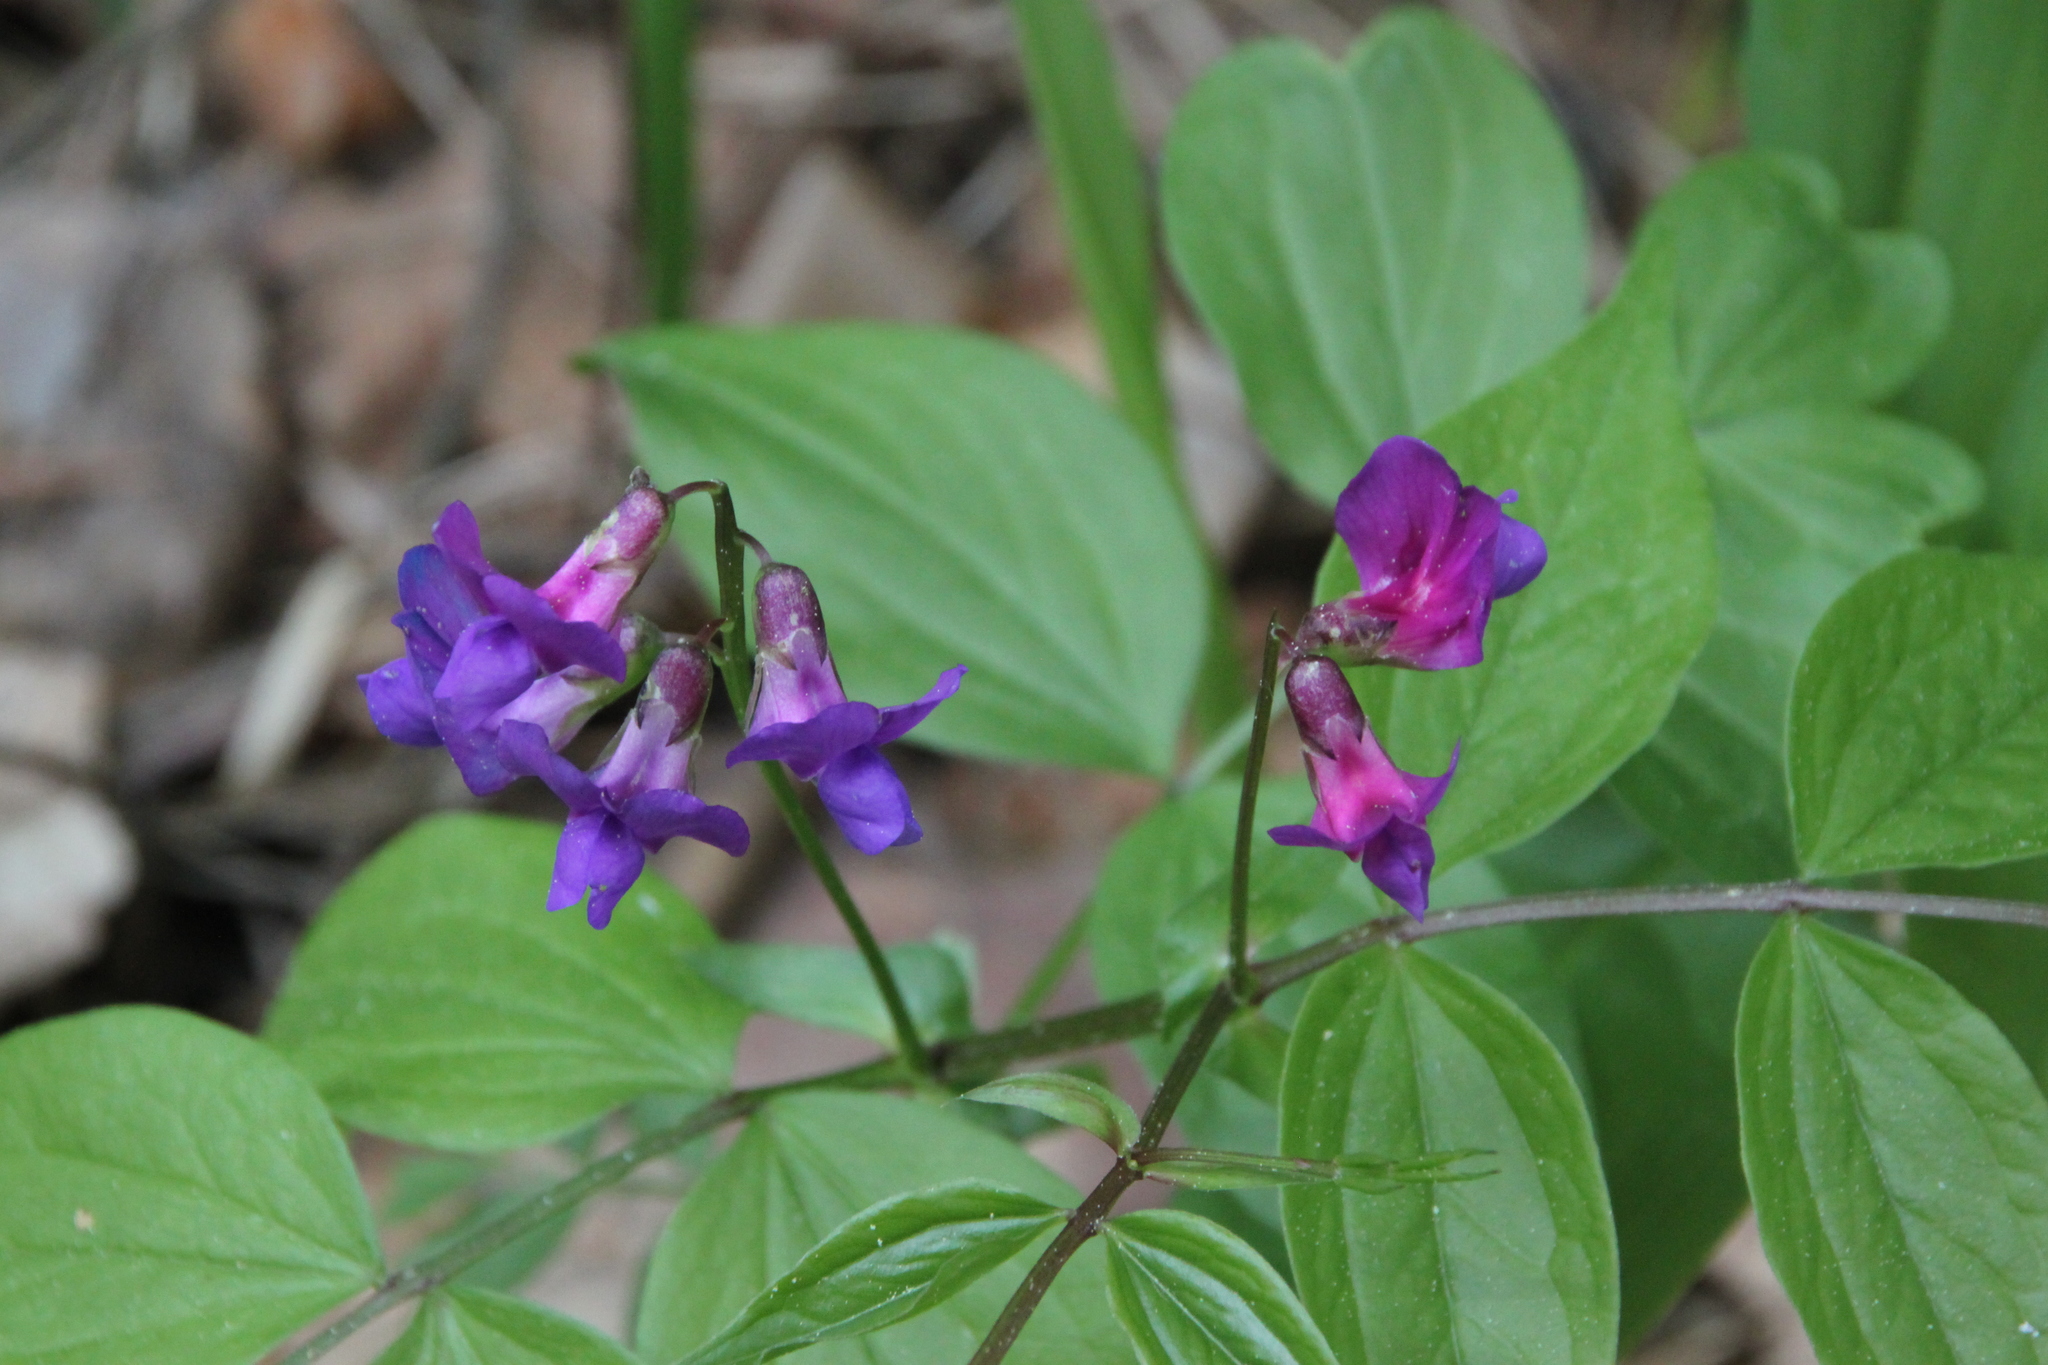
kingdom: Plantae
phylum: Tracheophyta
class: Magnoliopsida
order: Fabales
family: Fabaceae
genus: Lathyrus
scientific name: Lathyrus vernus
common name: Spring pea
